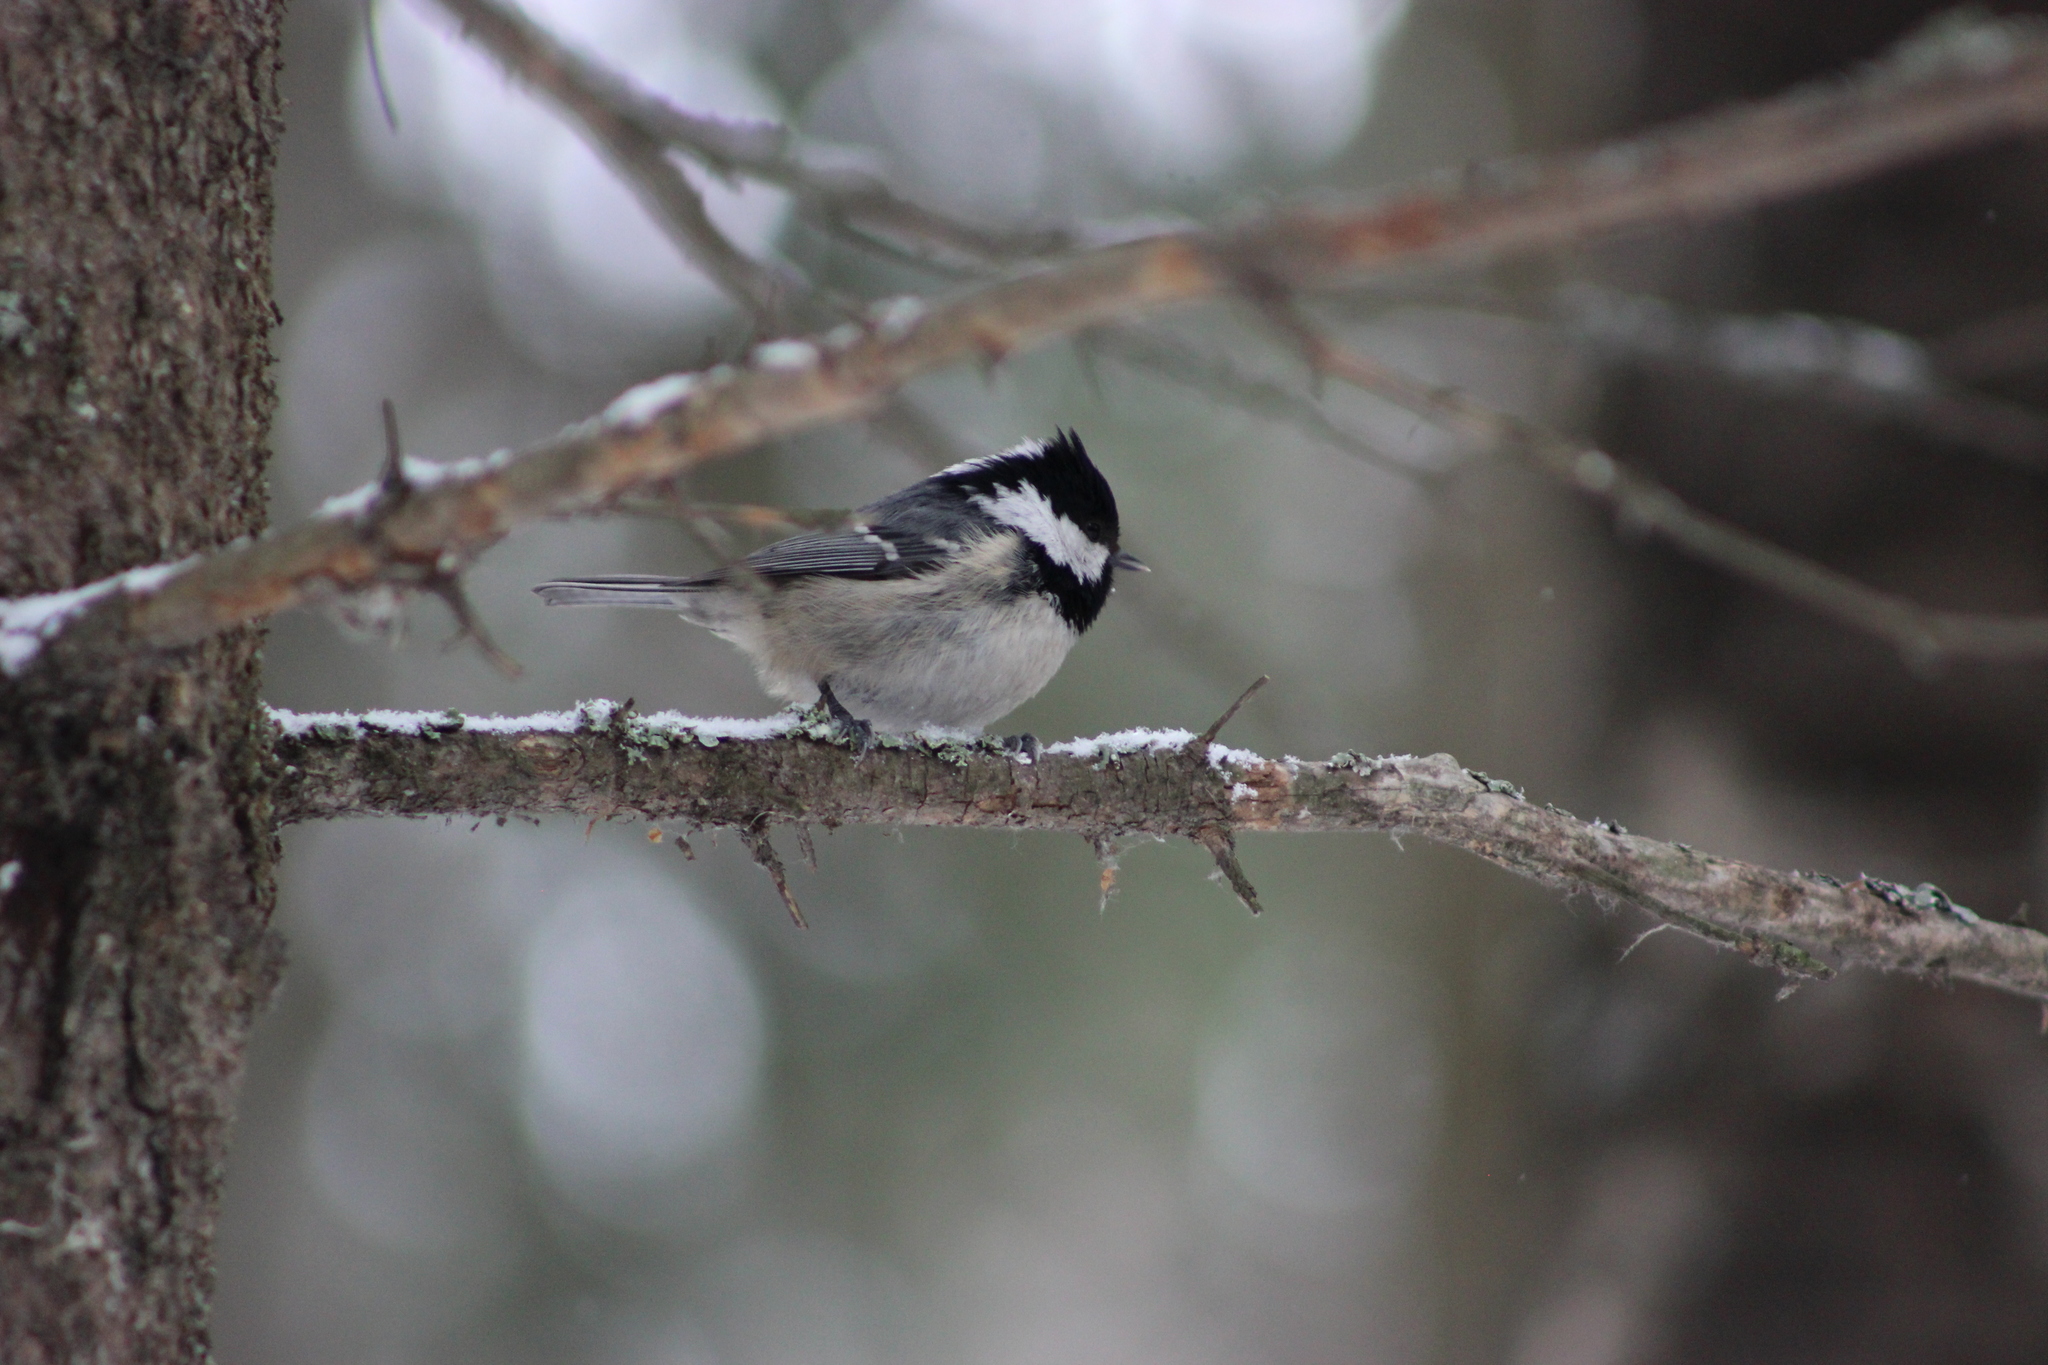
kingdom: Animalia
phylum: Chordata
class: Aves
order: Passeriformes
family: Paridae
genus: Periparus
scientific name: Periparus ater
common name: Coal tit
